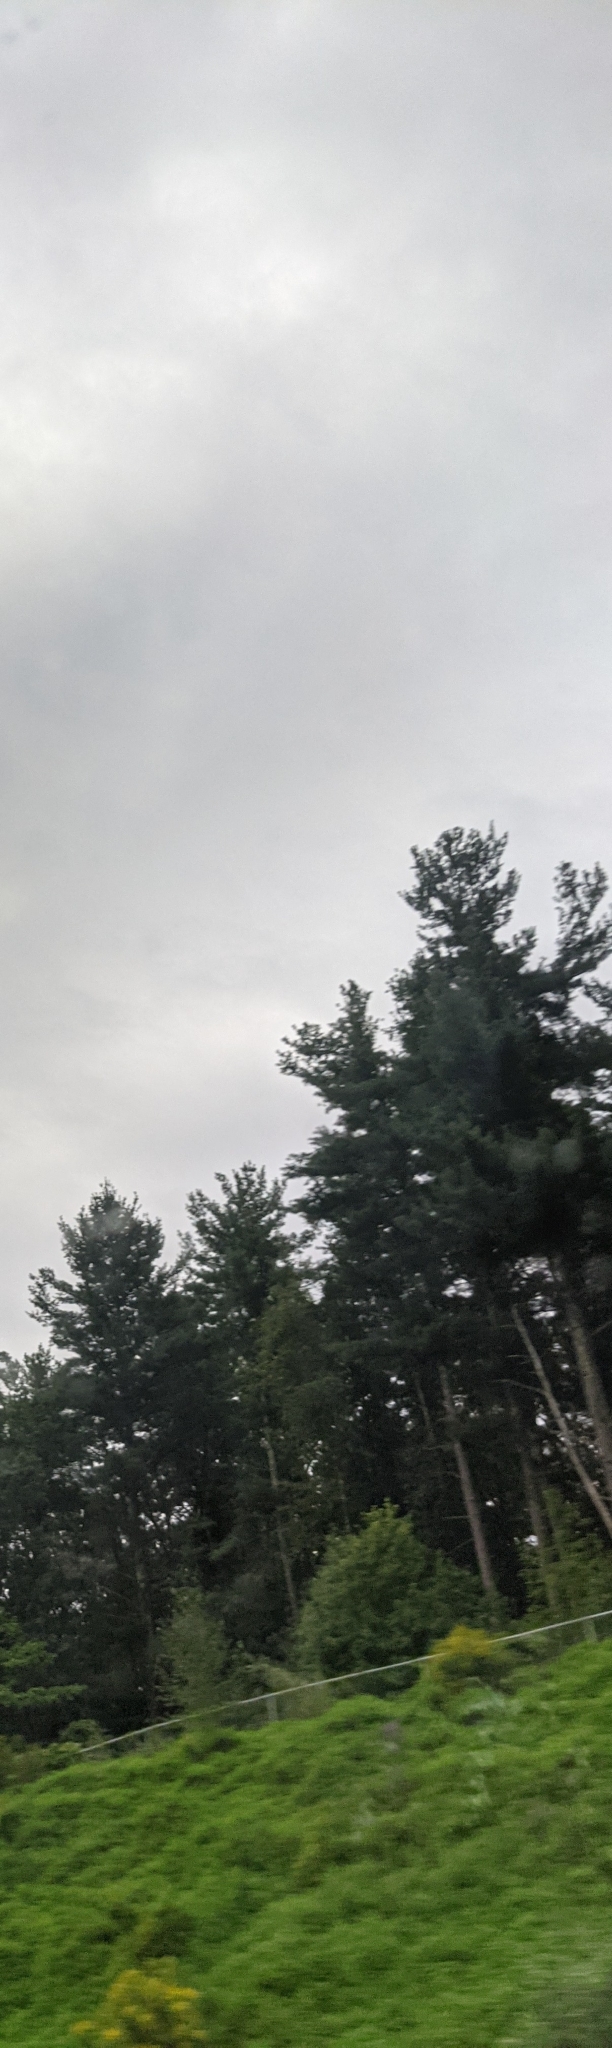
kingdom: Plantae
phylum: Tracheophyta
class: Pinopsida
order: Pinales
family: Pinaceae
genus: Pinus
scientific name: Pinus strobus
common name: Weymouth pine
